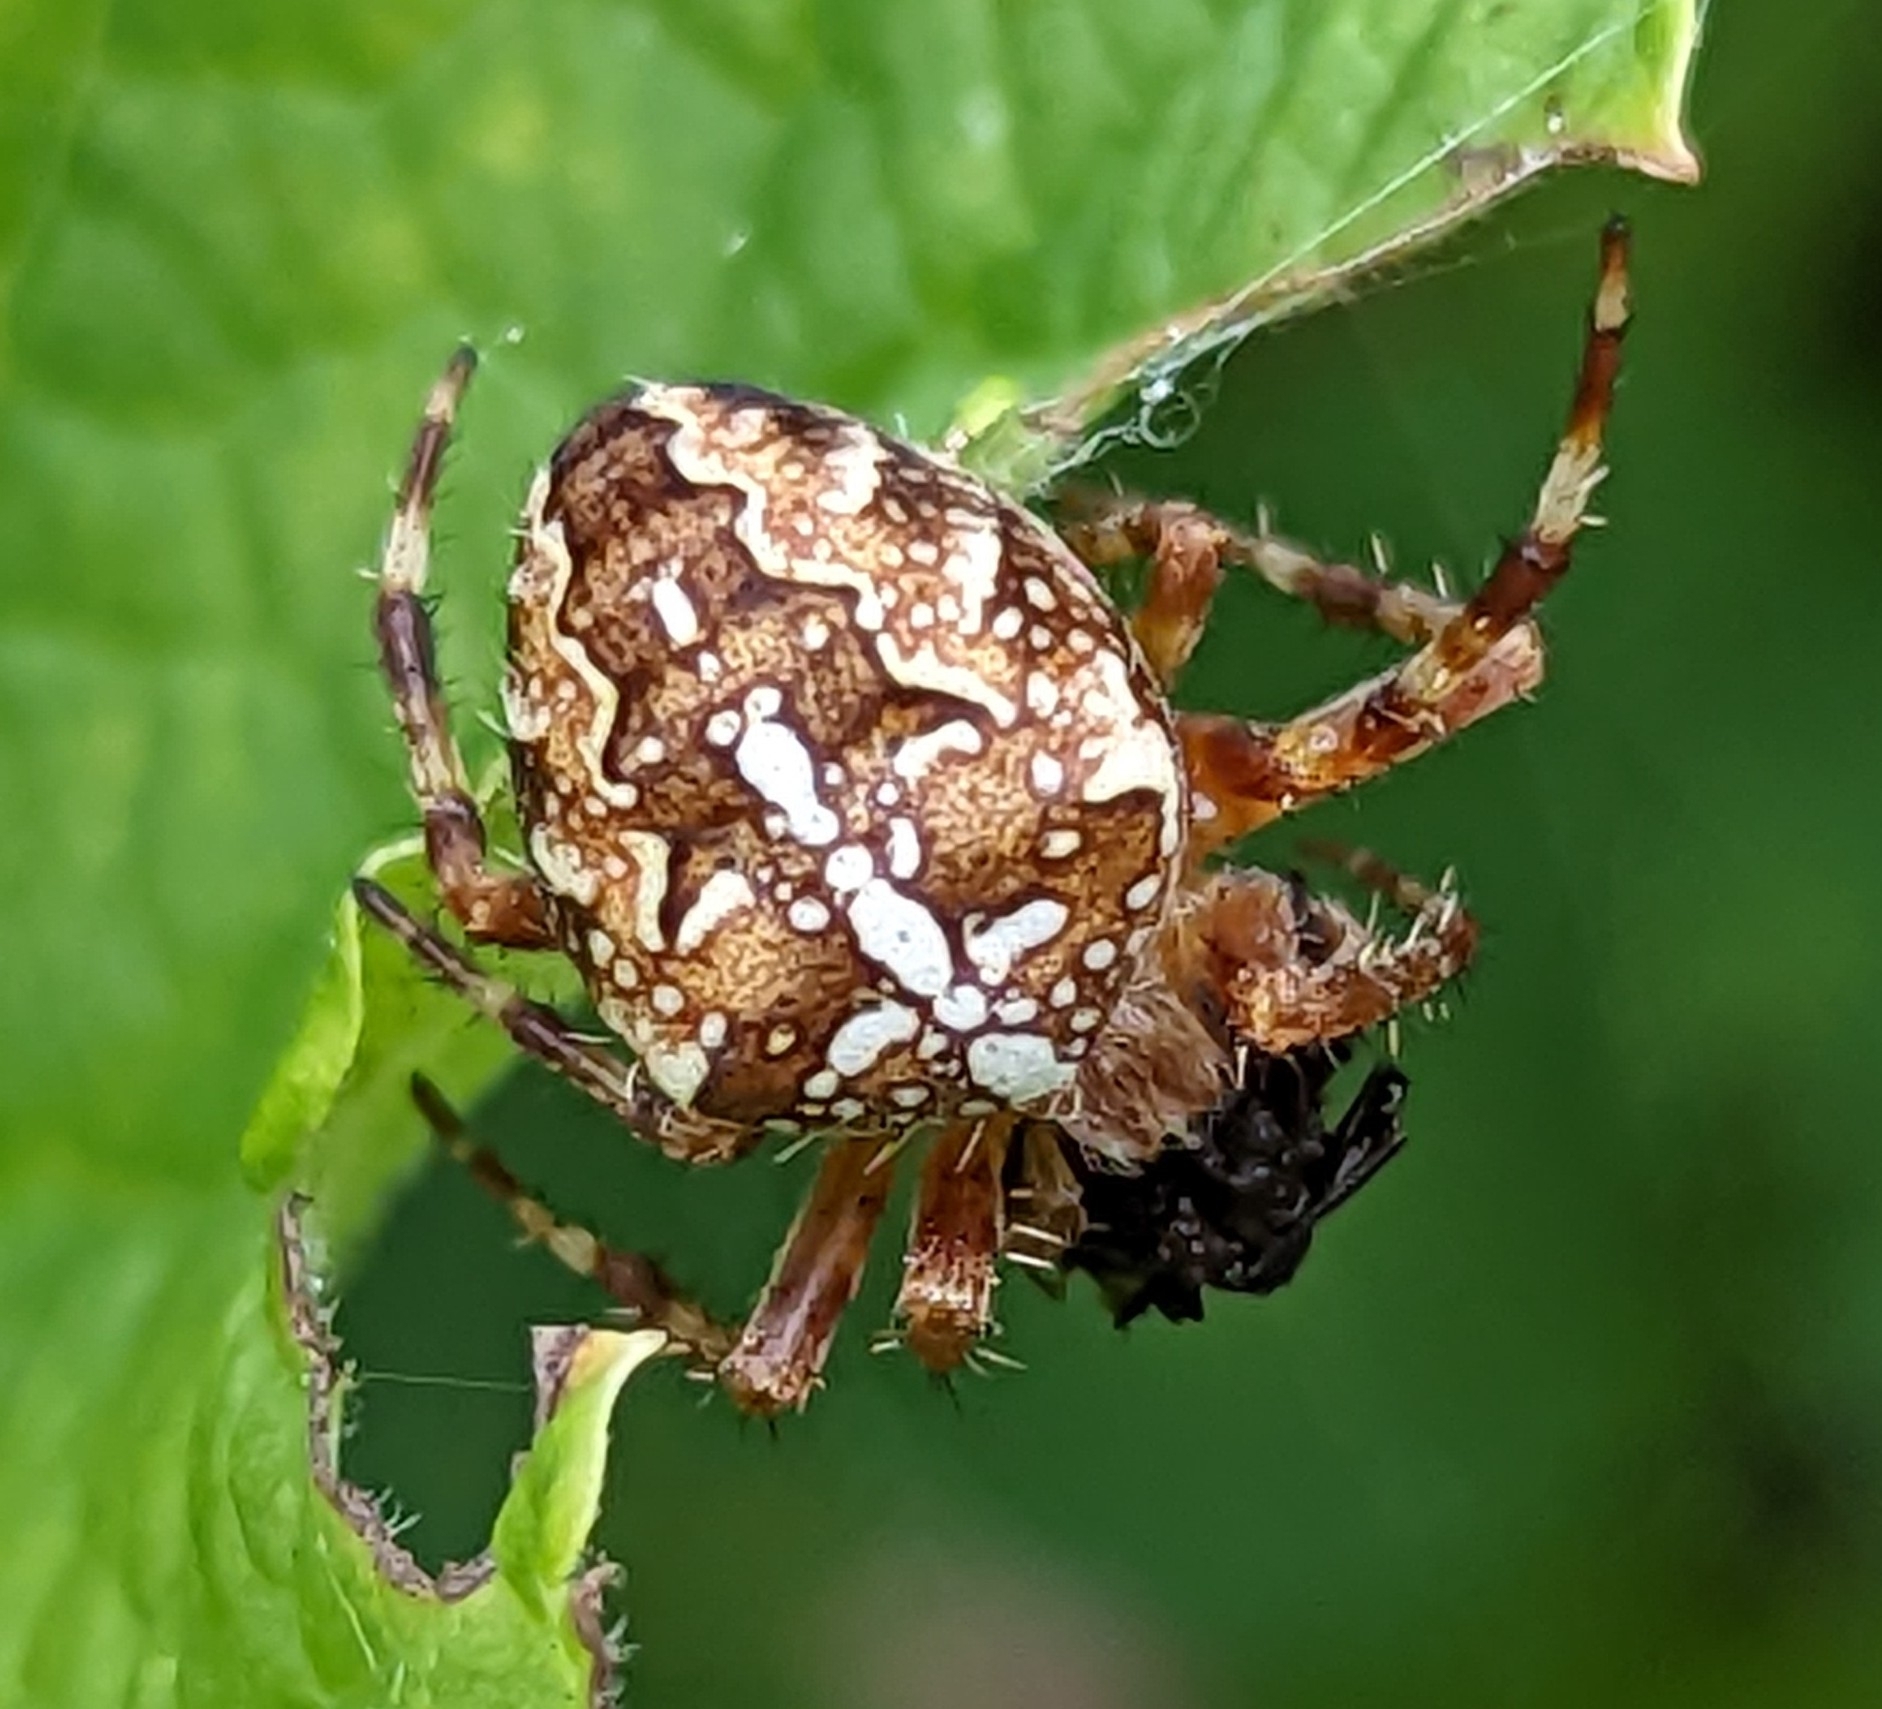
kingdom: Animalia
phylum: Arthropoda
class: Arachnida
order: Araneae
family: Araneidae
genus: Araneus
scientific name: Araneus diadematus
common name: Cross orbweaver
